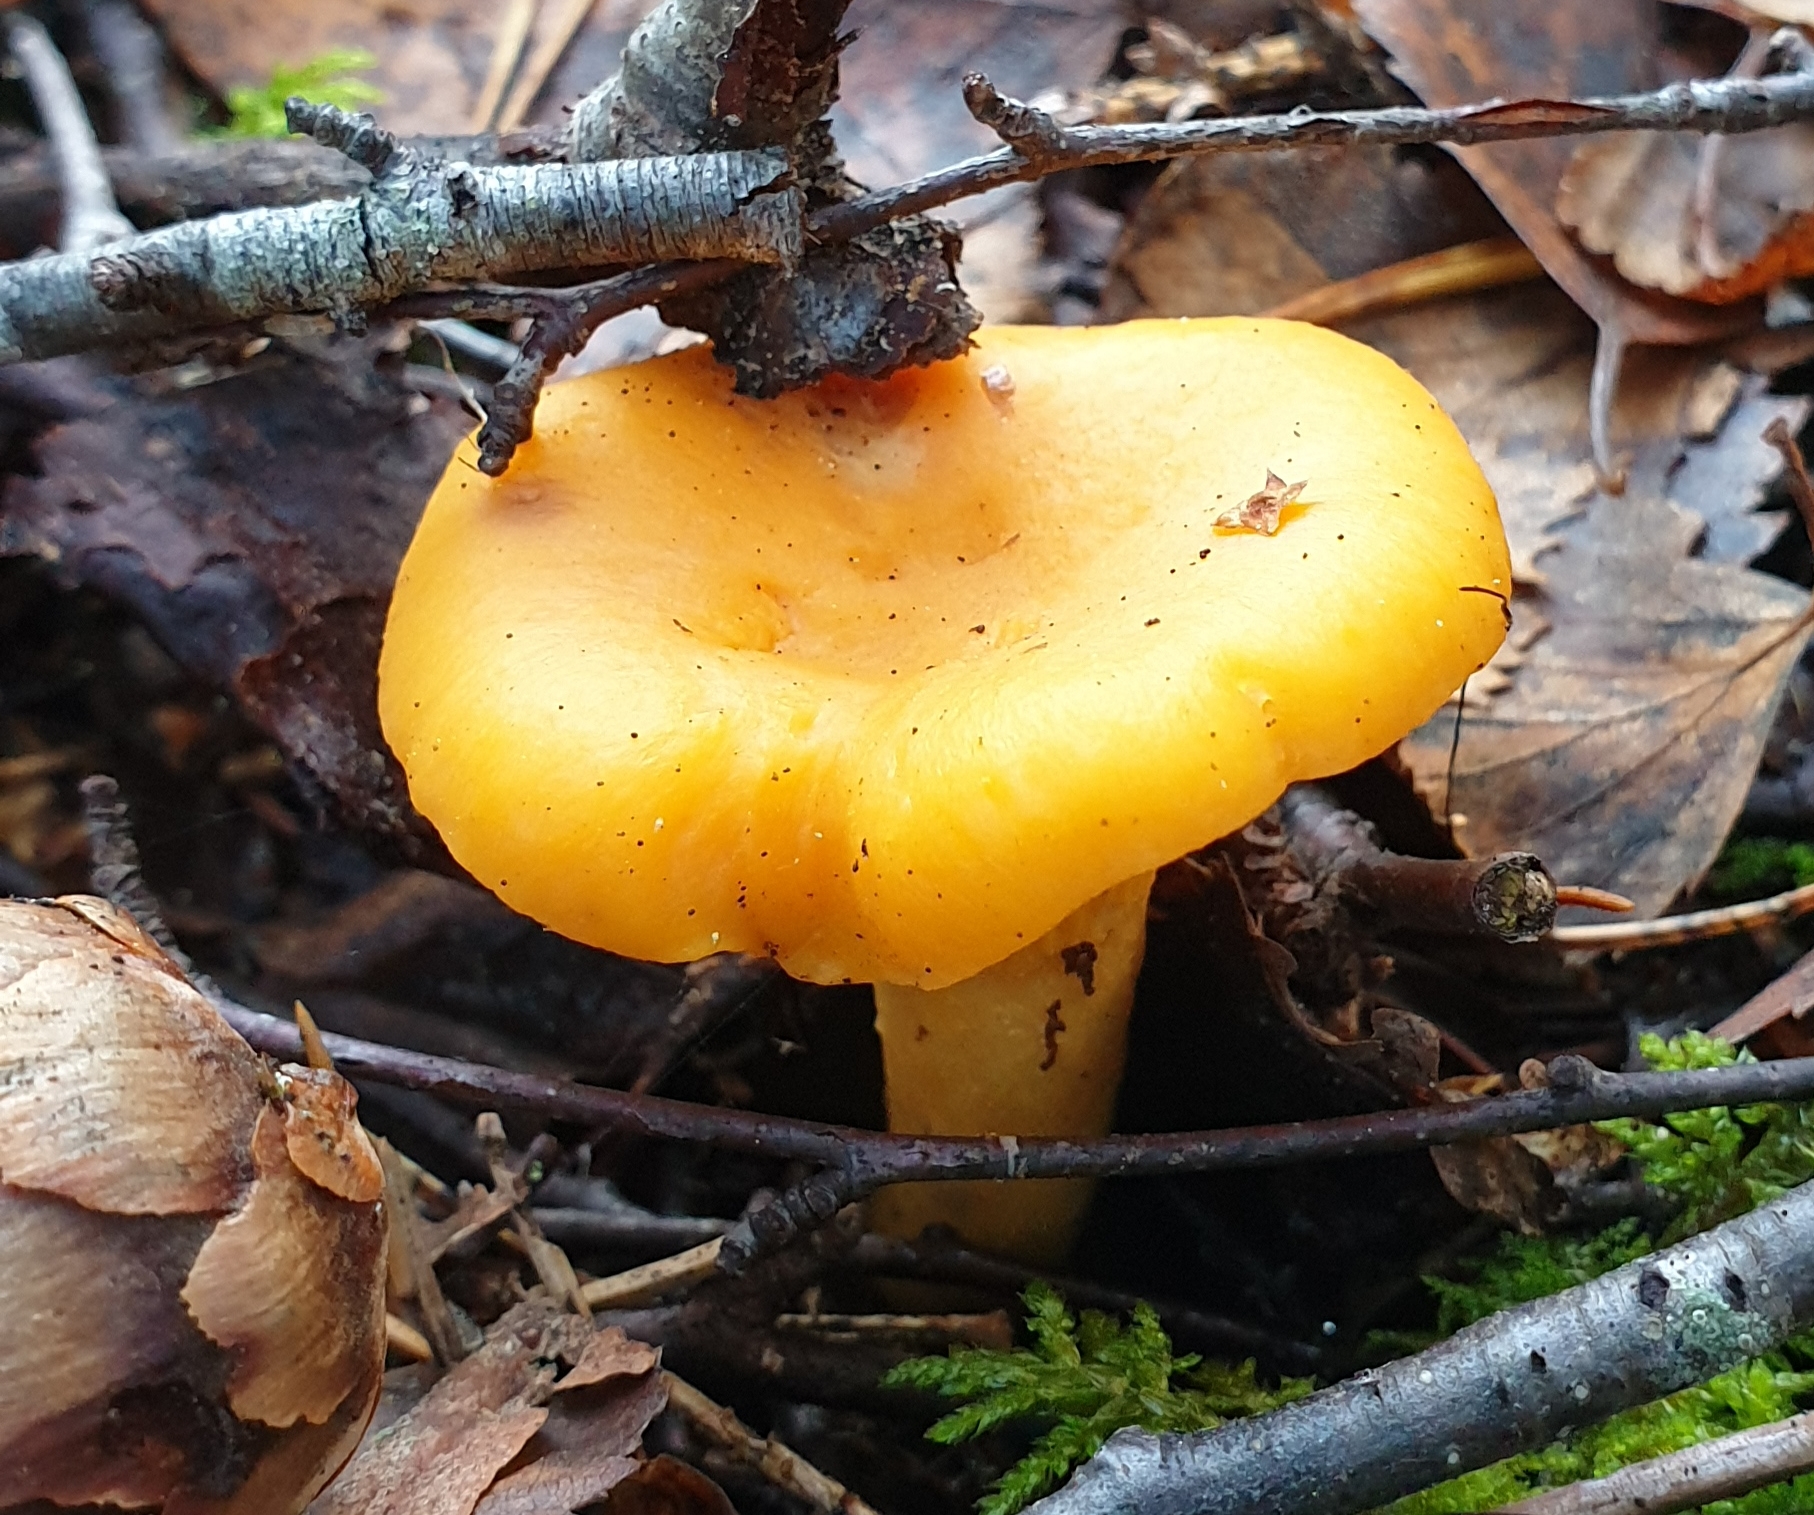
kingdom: Fungi
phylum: Basidiomycota
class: Agaricomycetes
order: Cantharellales
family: Hydnaceae
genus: Cantharellus
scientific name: Cantharellus cibarius
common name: Chanterelle
